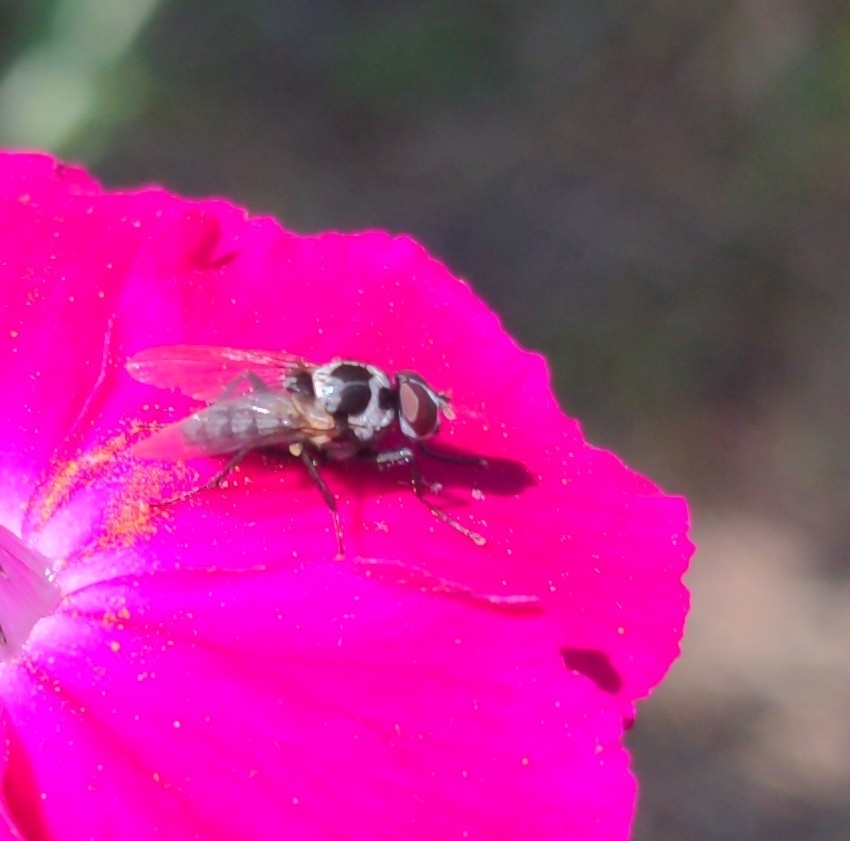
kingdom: Animalia
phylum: Arthropoda
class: Insecta
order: Diptera
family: Anthomyiidae
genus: Anthomyia
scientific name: Anthomyia procellaris
